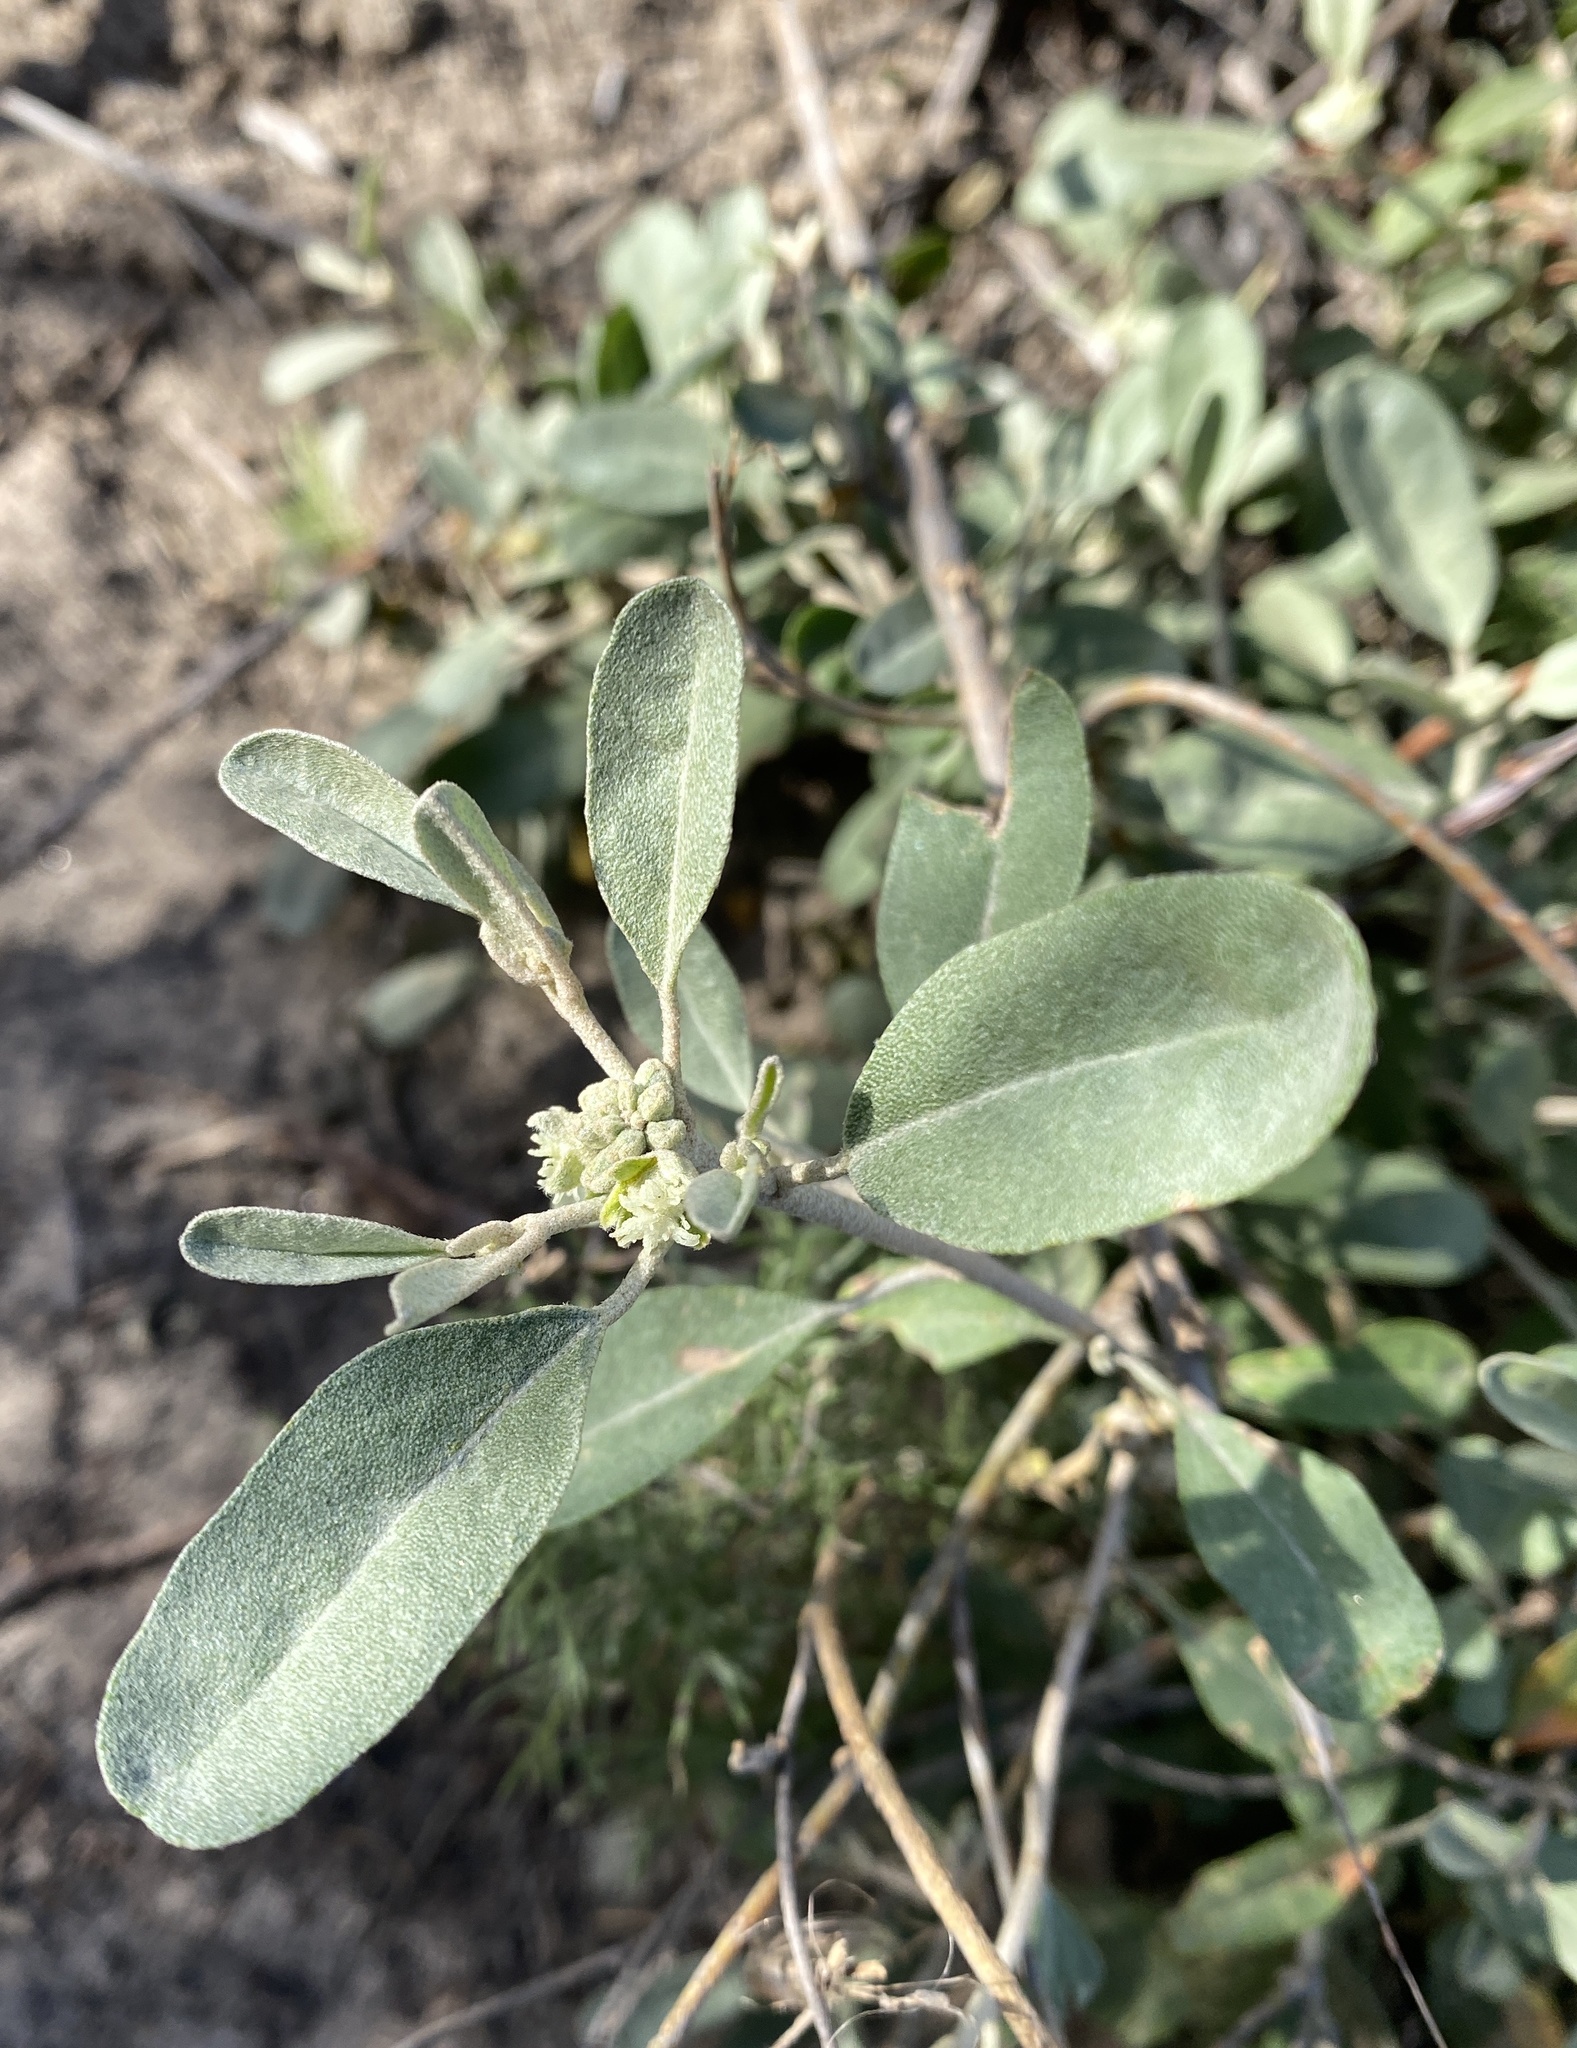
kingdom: Plantae
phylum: Tracheophyta
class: Magnoliopsida
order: Malpighiales
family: Euphorbiaceae
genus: Croton
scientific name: Croton californicus
